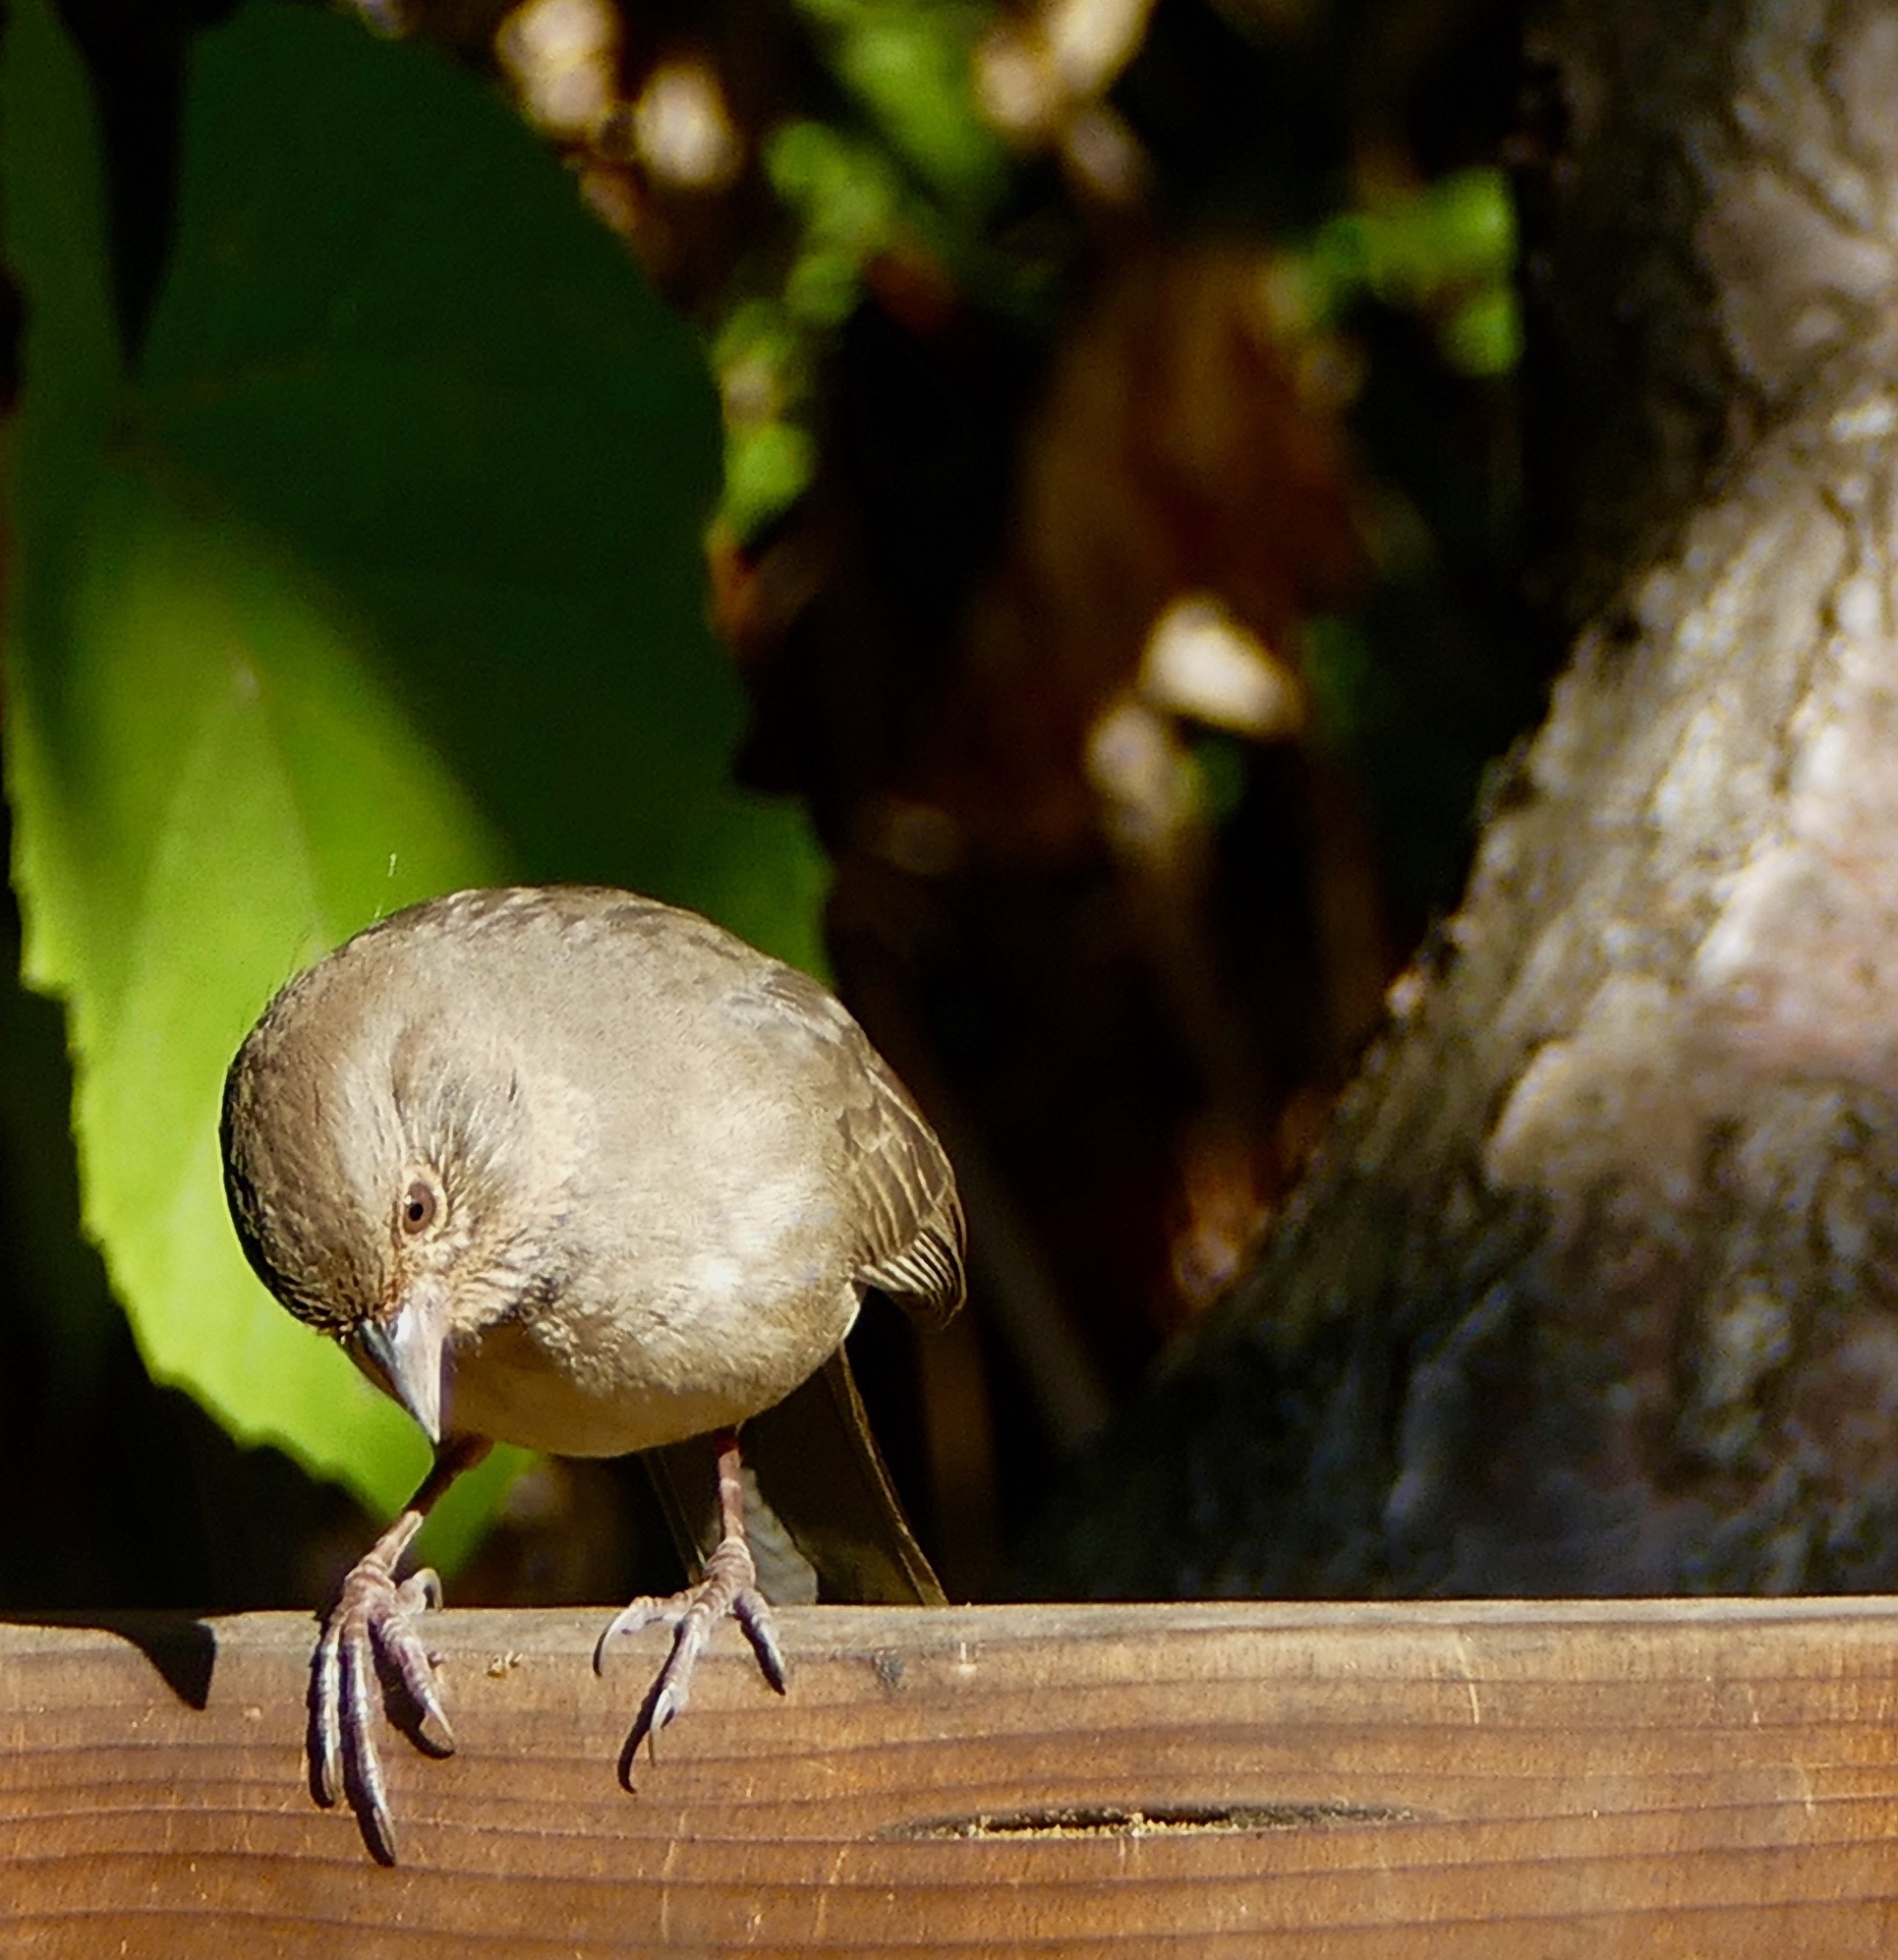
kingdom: Animalia
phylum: Chordata
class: Aves
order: Passeriformes
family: Passerellidae
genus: Melozone
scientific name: Melozone crissalis
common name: California towhee
